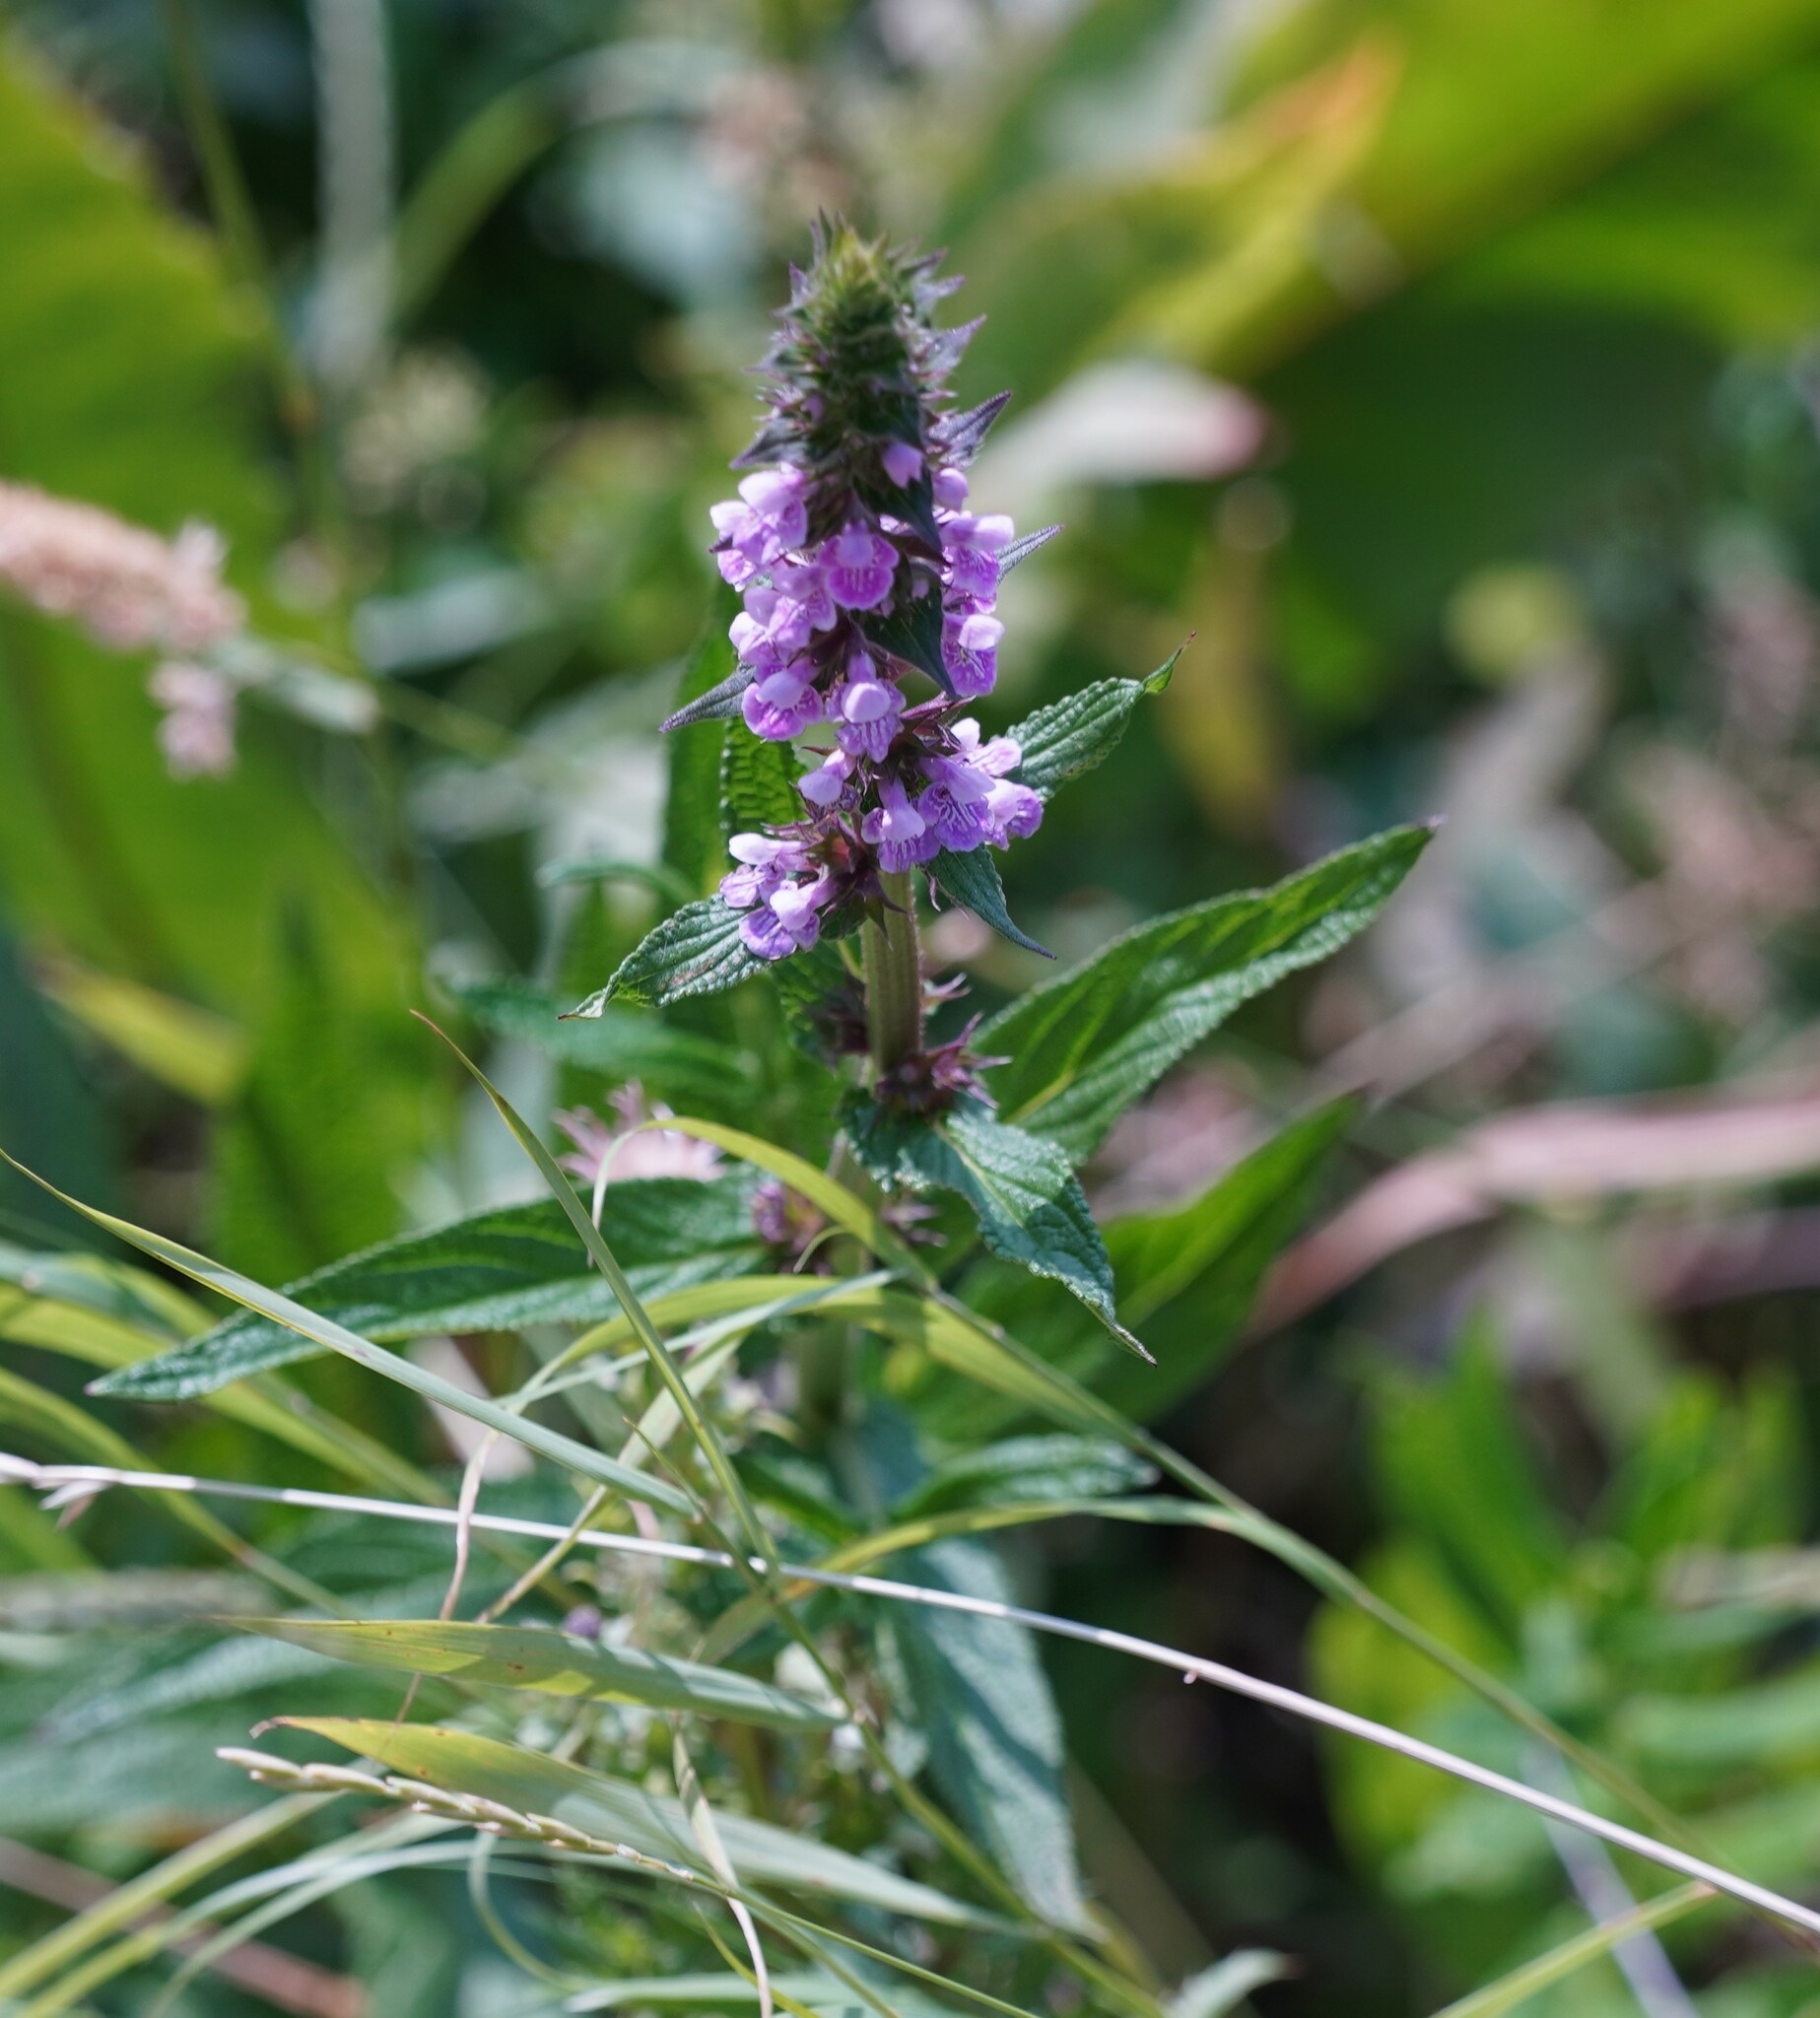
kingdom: Plantae
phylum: Tracheophyta
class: Magnoliopsida
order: Lamiales
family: Lamiaceae
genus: Stachys
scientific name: Stachys palustris
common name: Marsh woundwort
